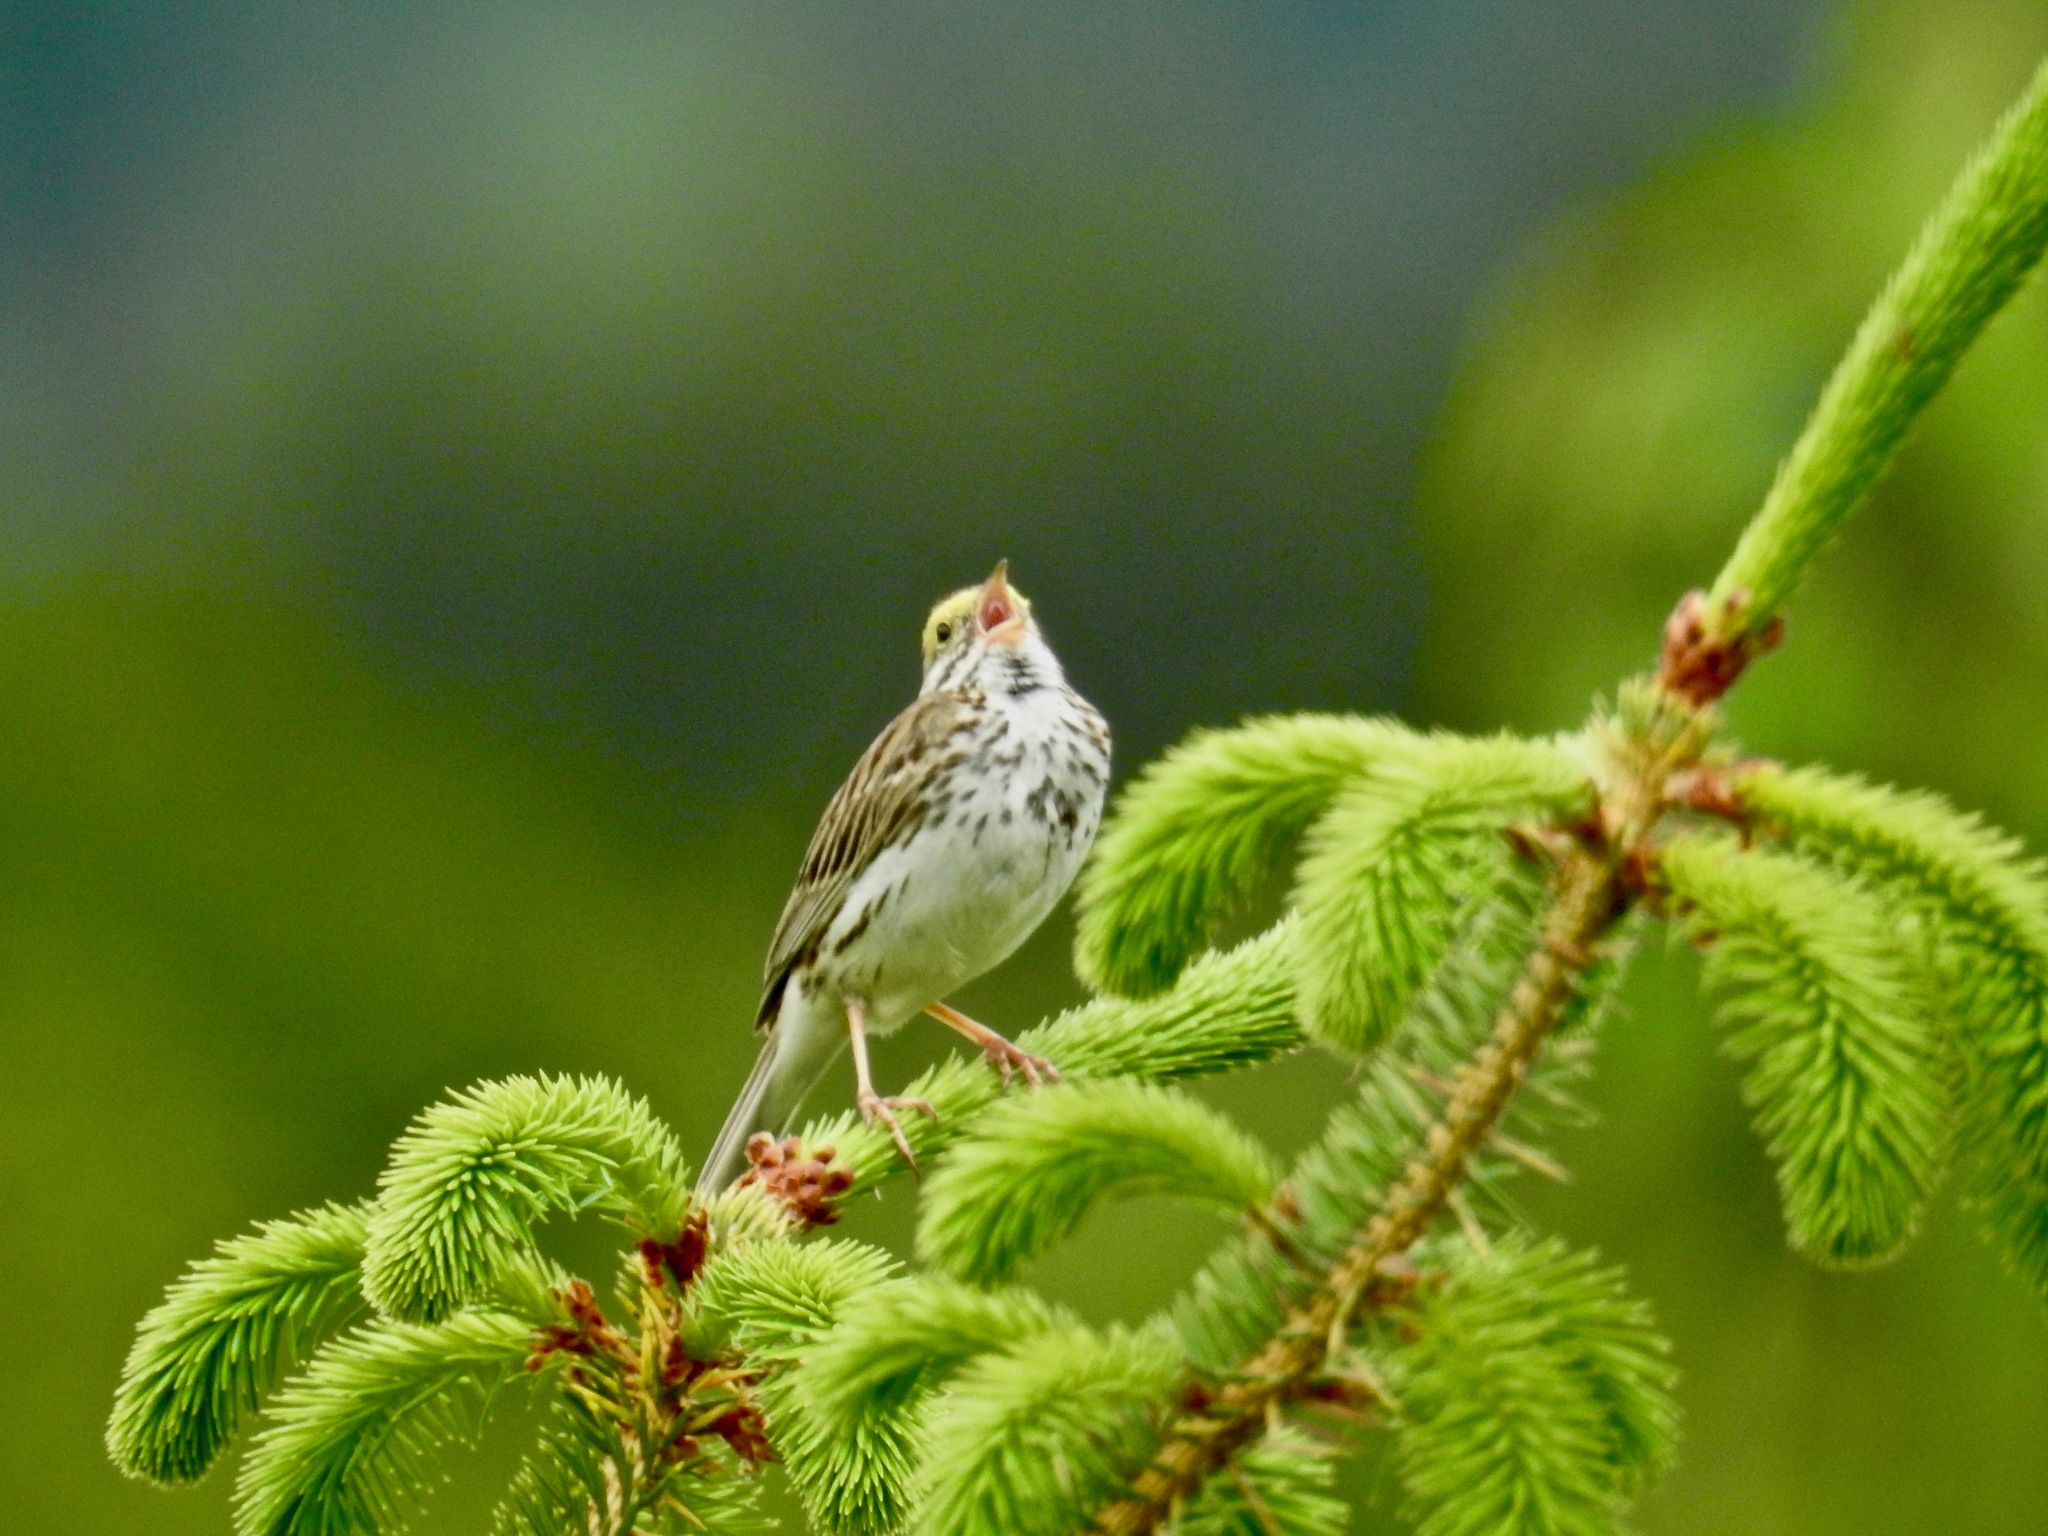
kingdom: Animalia
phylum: Chordata
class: Aves
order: Passeriformes
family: Passerellidae
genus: Passerculus
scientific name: Passerculus sandwichensis
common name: Savannah sparrow
